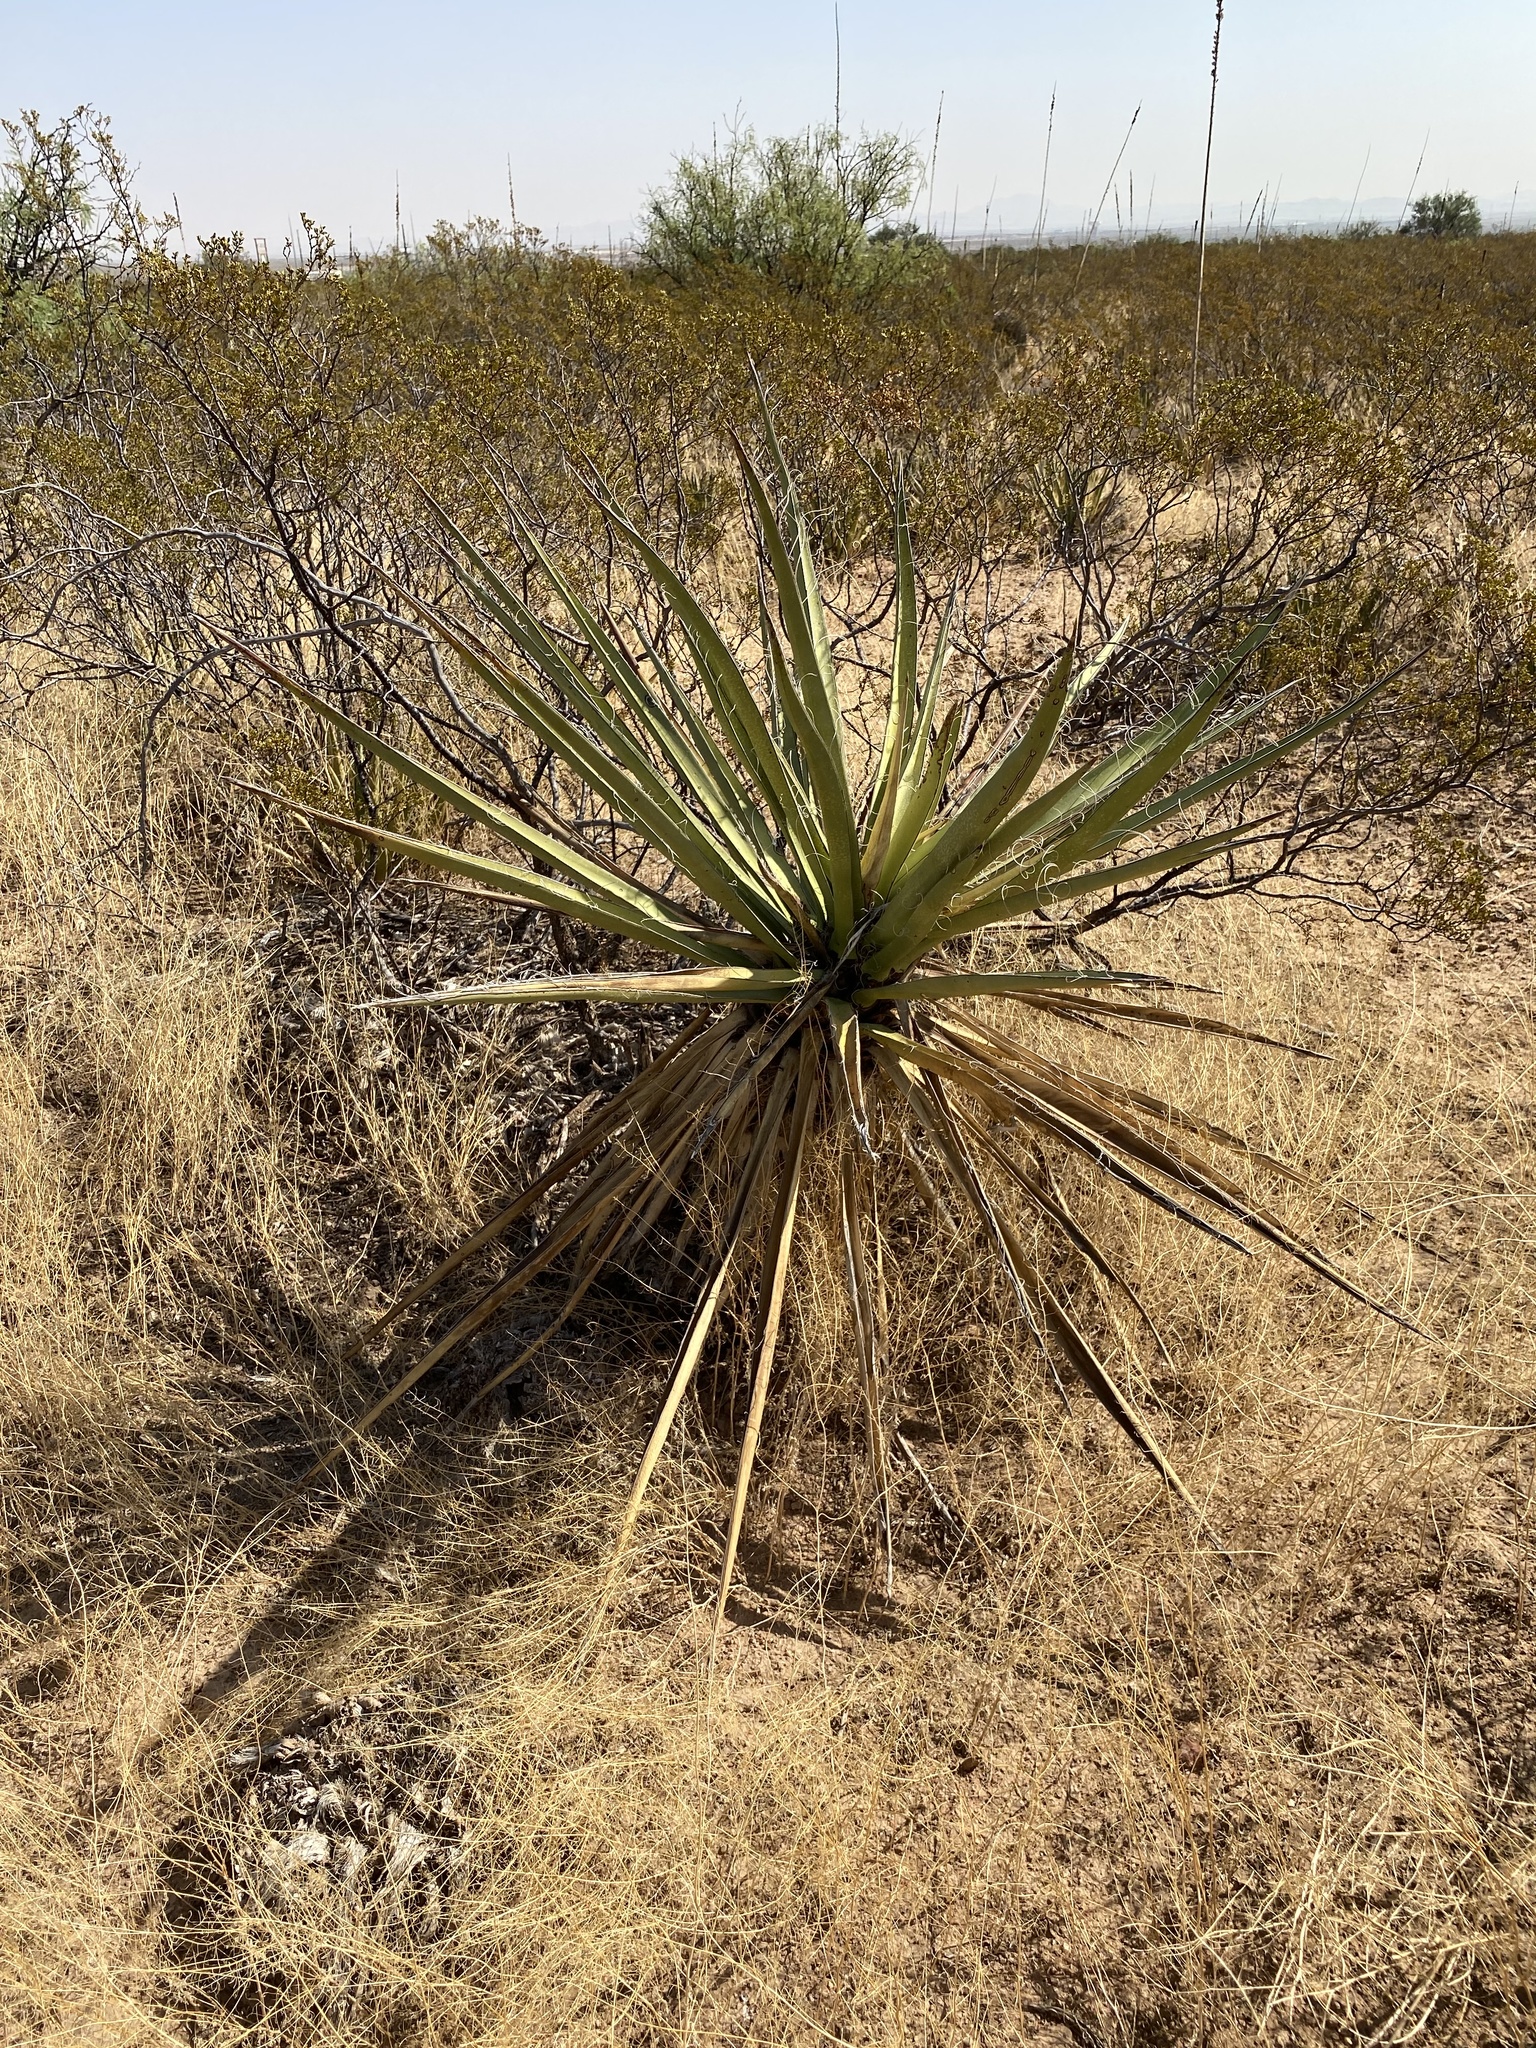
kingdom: Plantae
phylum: Tracheophyta
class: Liliopsida
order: Asparagales
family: Asparagaceae
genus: Yucca
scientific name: Yucca treculiana
